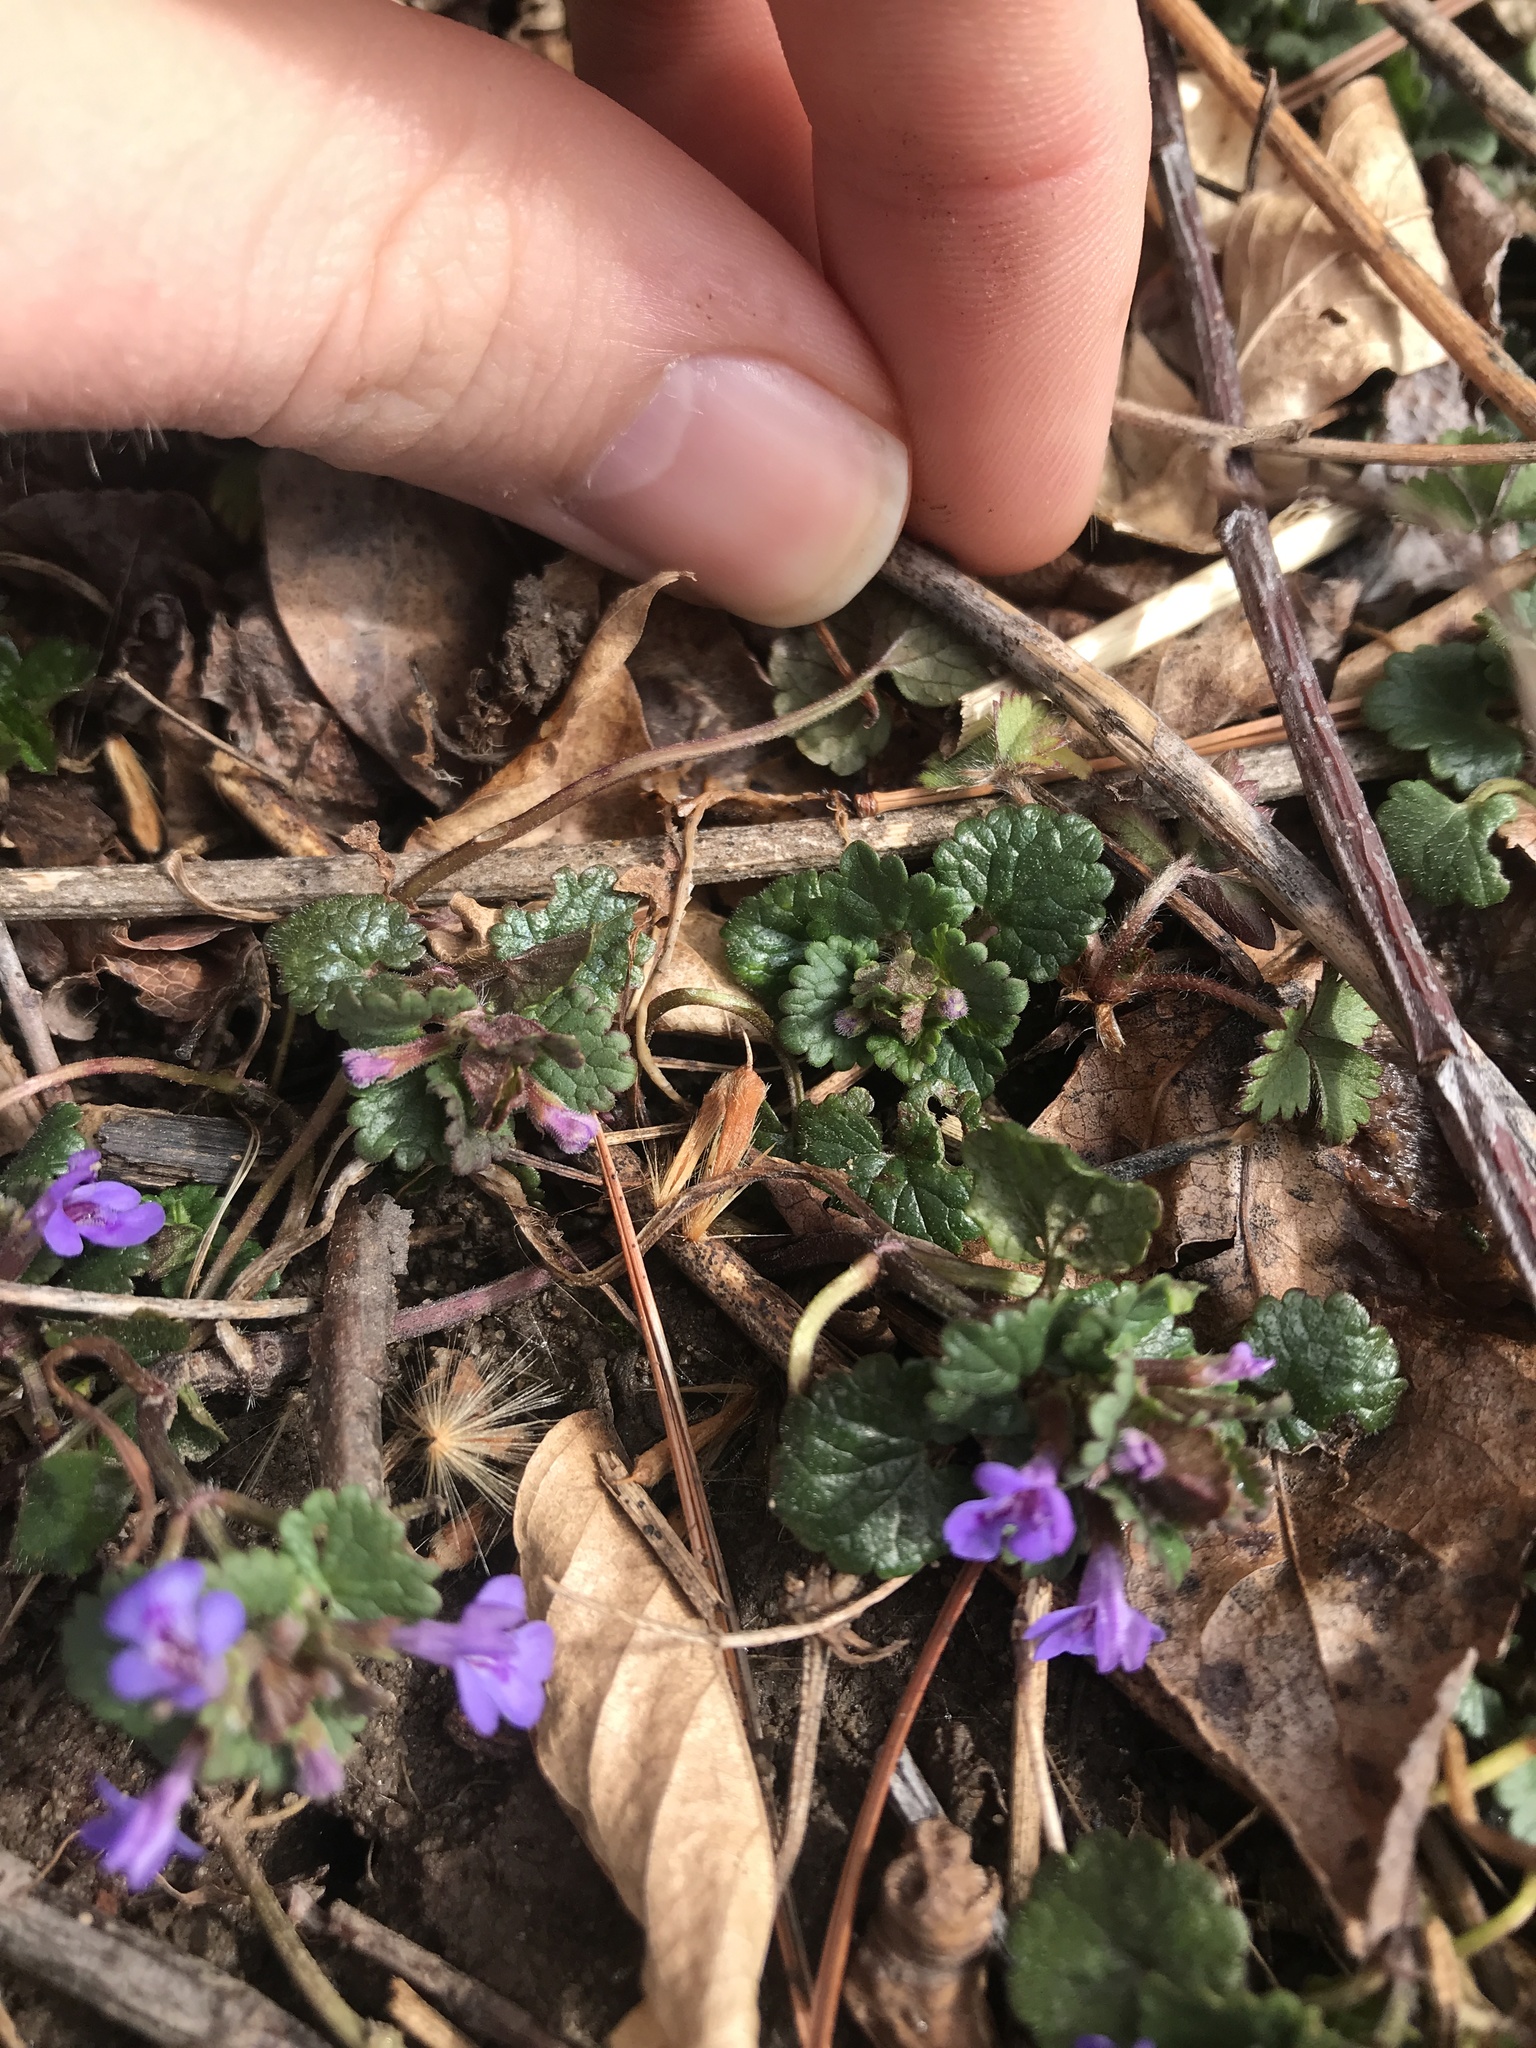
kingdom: Plantae
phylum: Tracheophyta
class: Magnoliopsida
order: Lamiales
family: Lamiaceae
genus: Glechoma
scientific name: Glechoma hederacea
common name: Ground ivy
